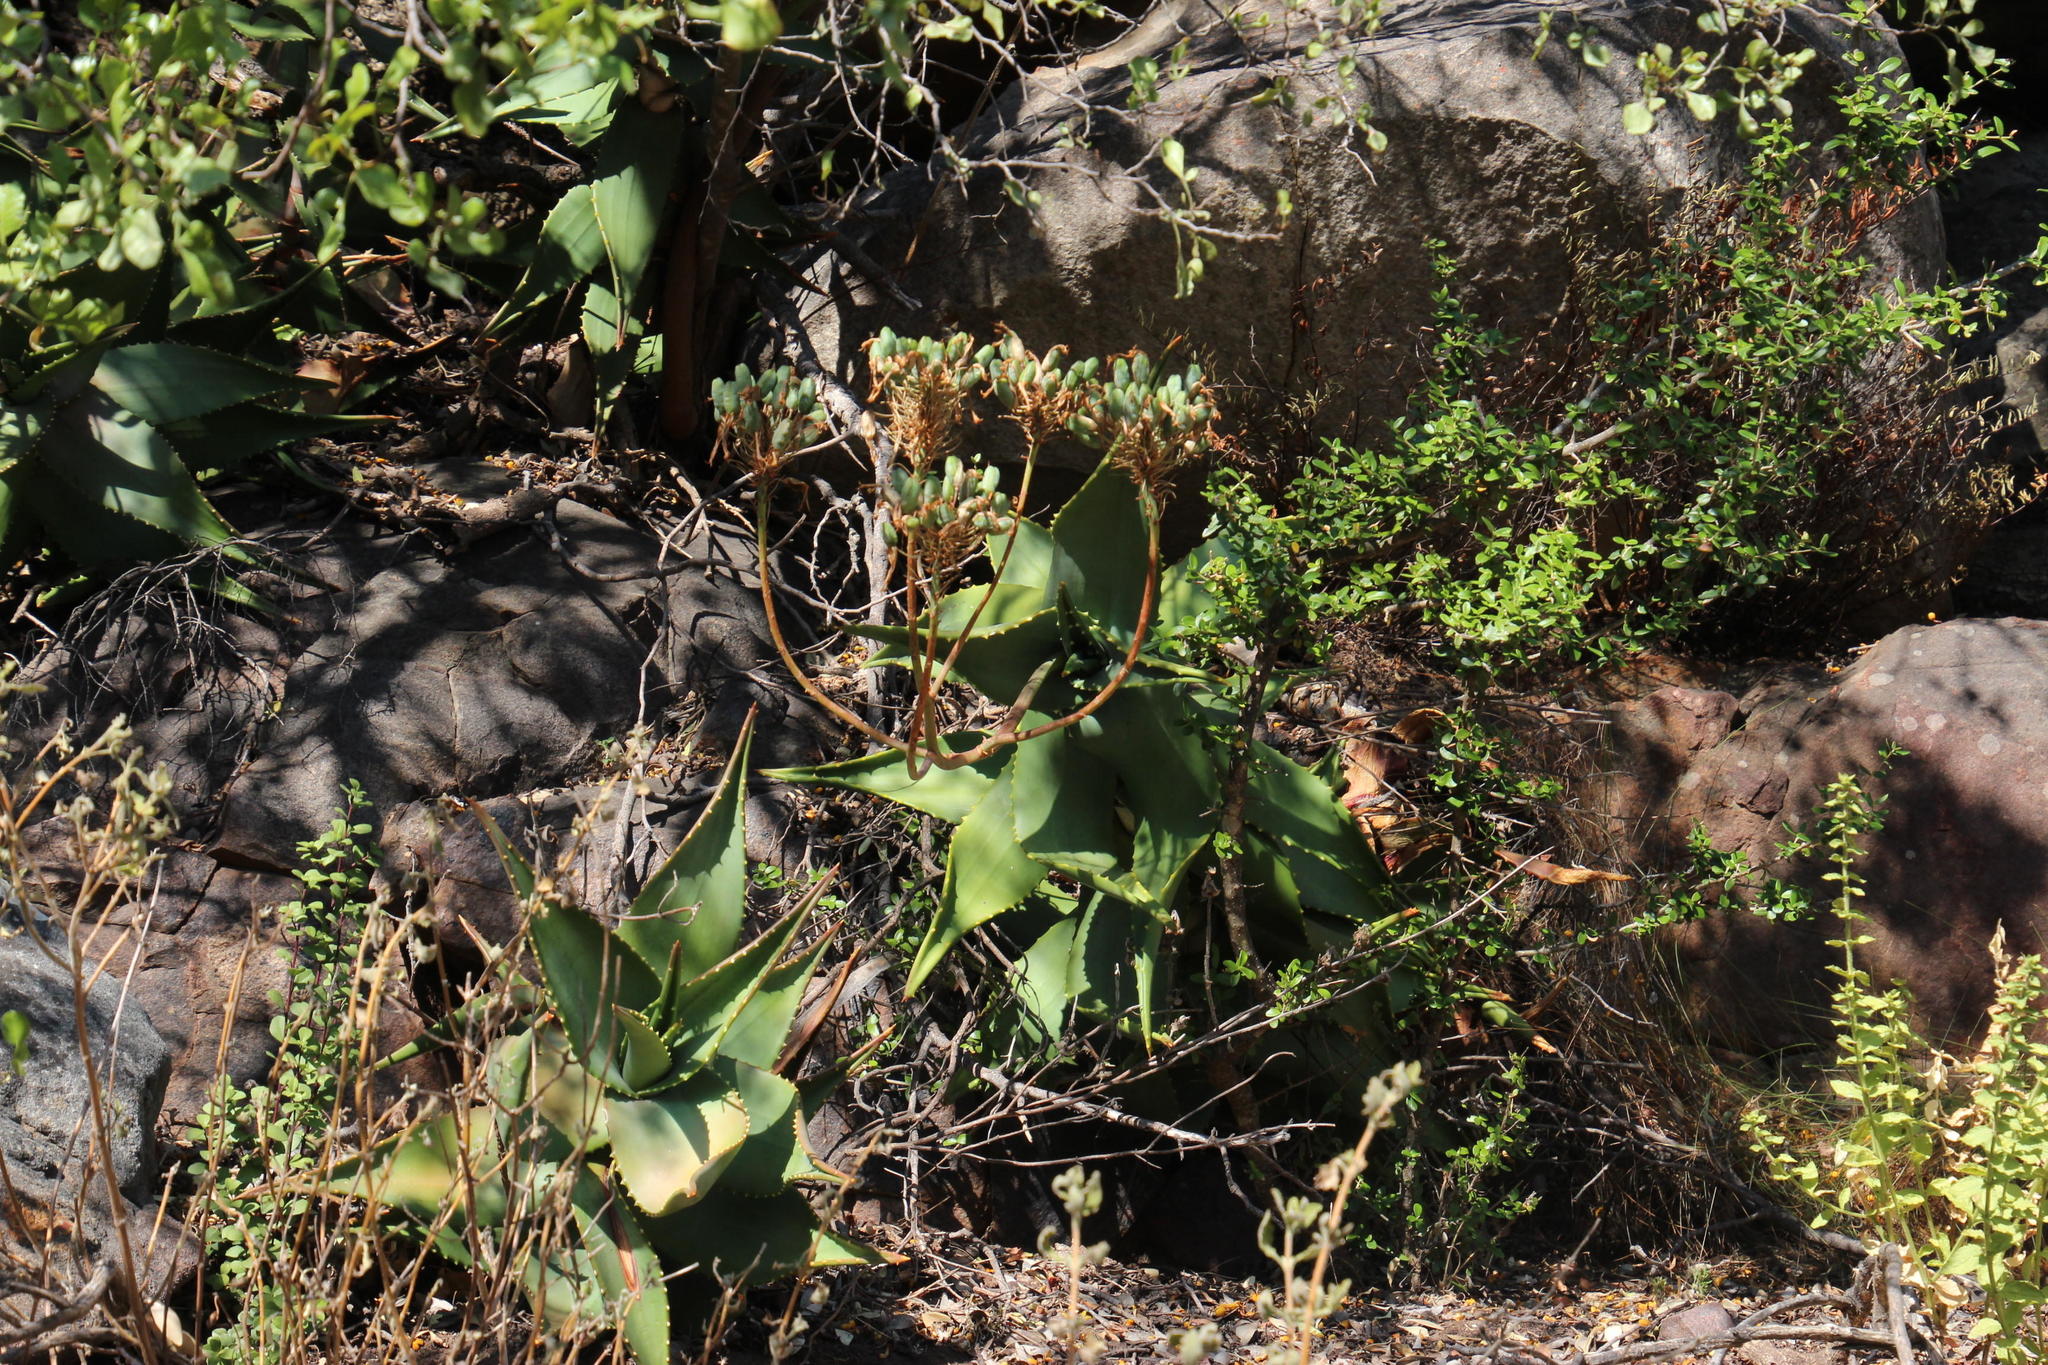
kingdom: Plantae
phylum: Tracheophyta
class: Liliopsida
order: Asparagales
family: Asphodelaceae
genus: Aloe
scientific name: Aloe perfoliata
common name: Mitra aloe
